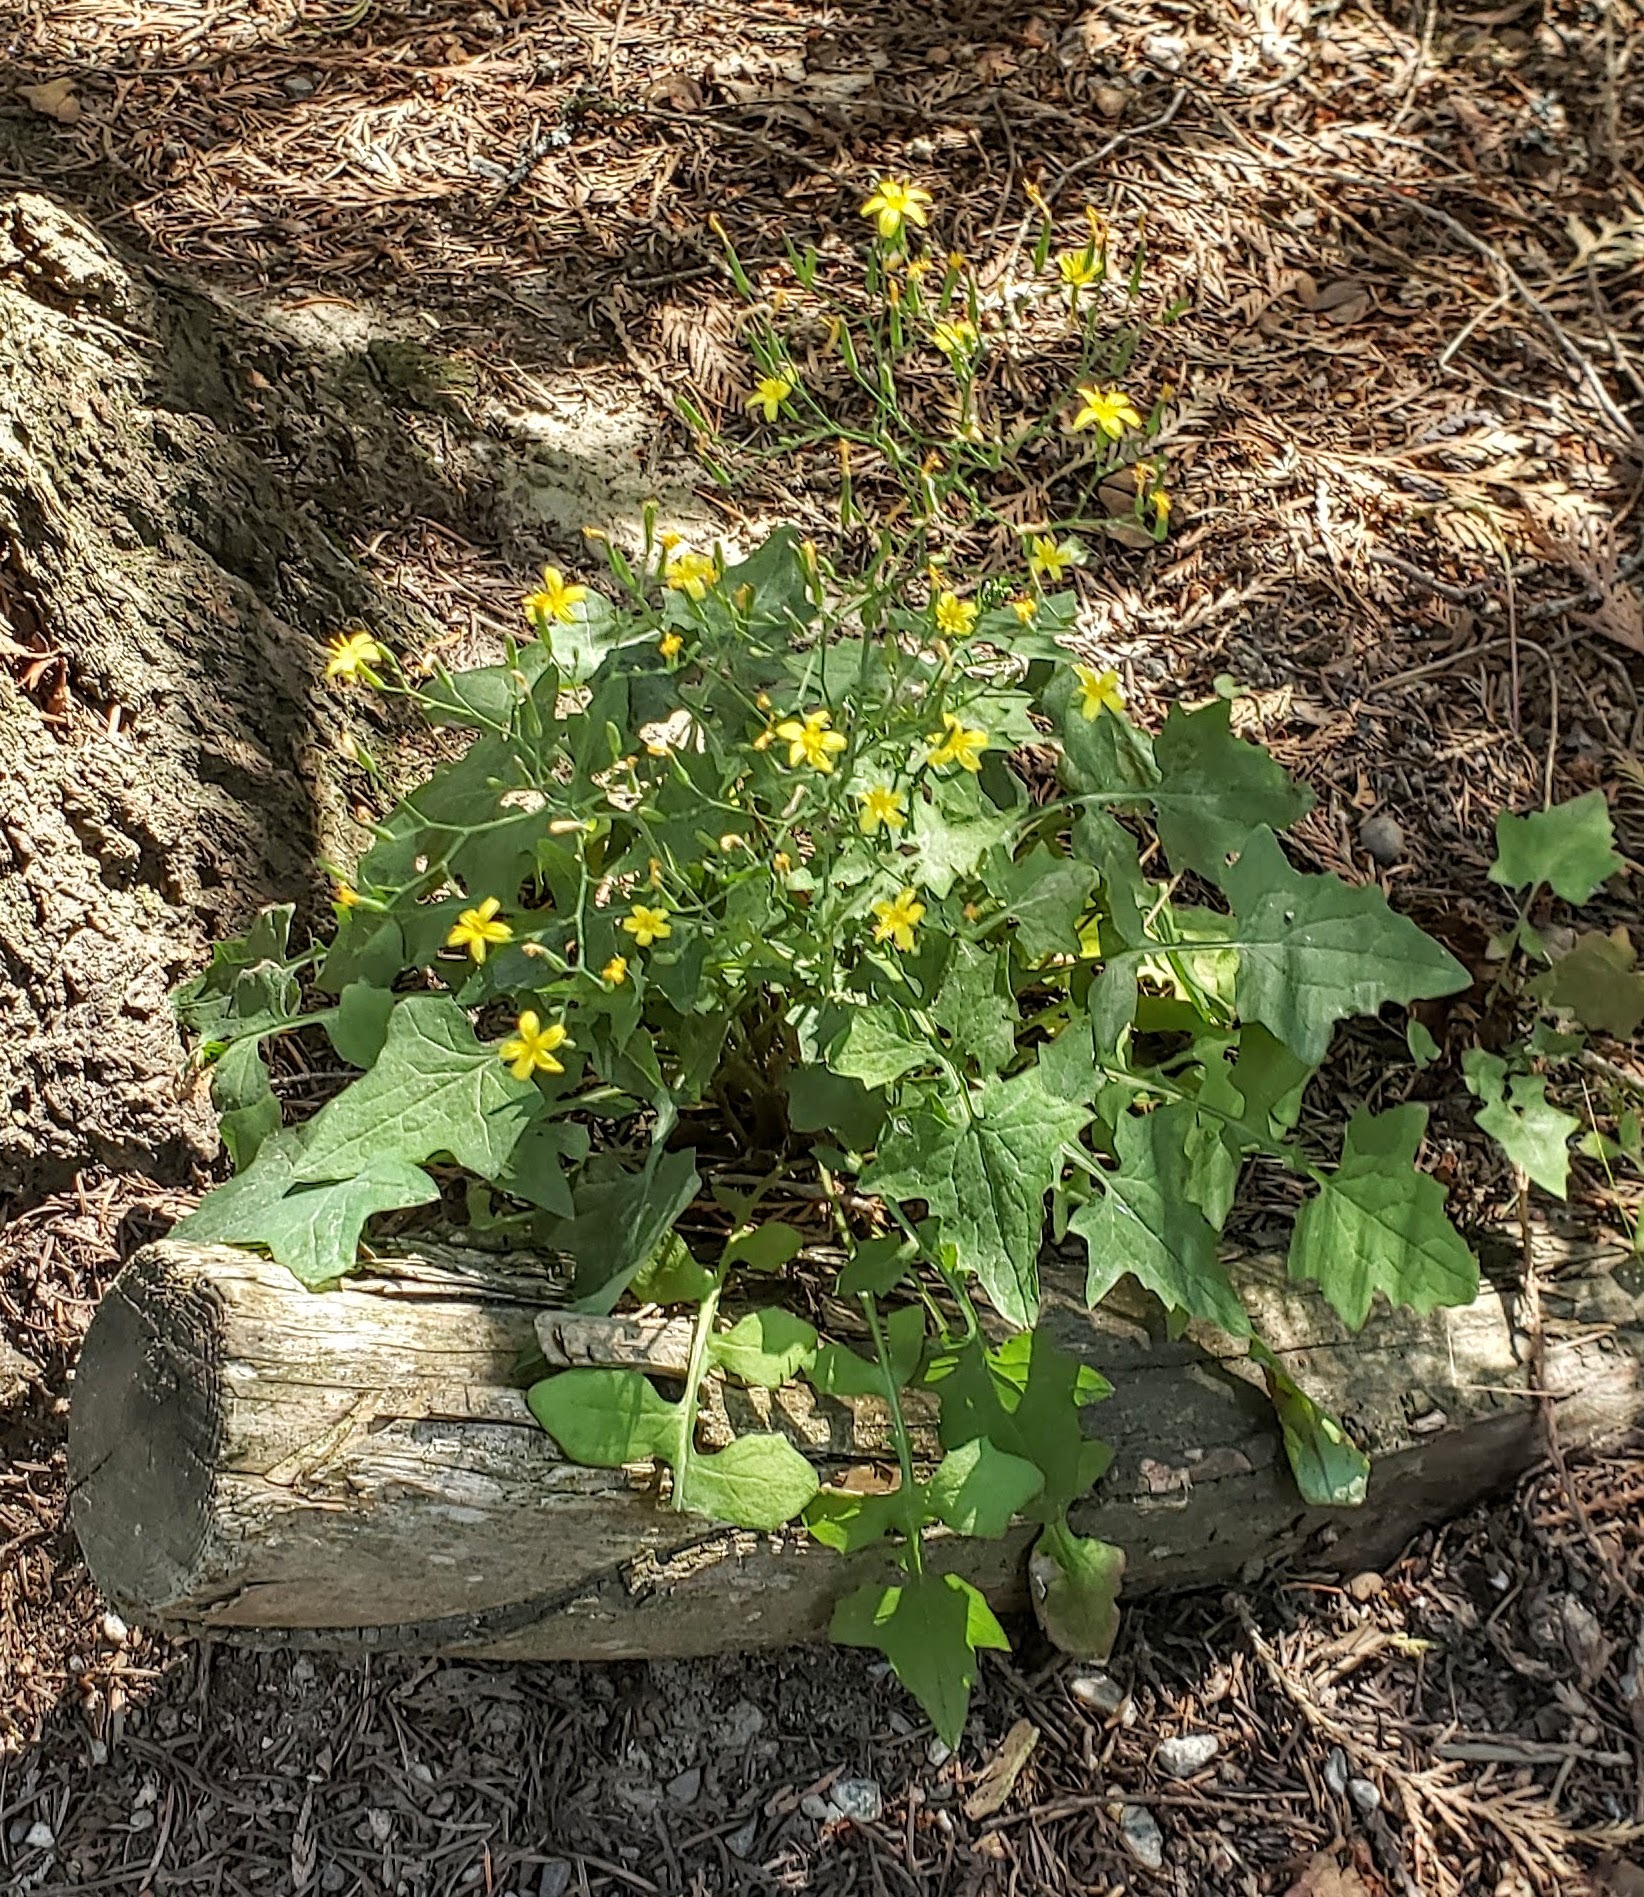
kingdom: Plantae
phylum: Tracheophyta
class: Magnoliopsida
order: Asterales
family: Asteraceae
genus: Mycelis
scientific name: Mycelis muralis
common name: Wall lettuce
